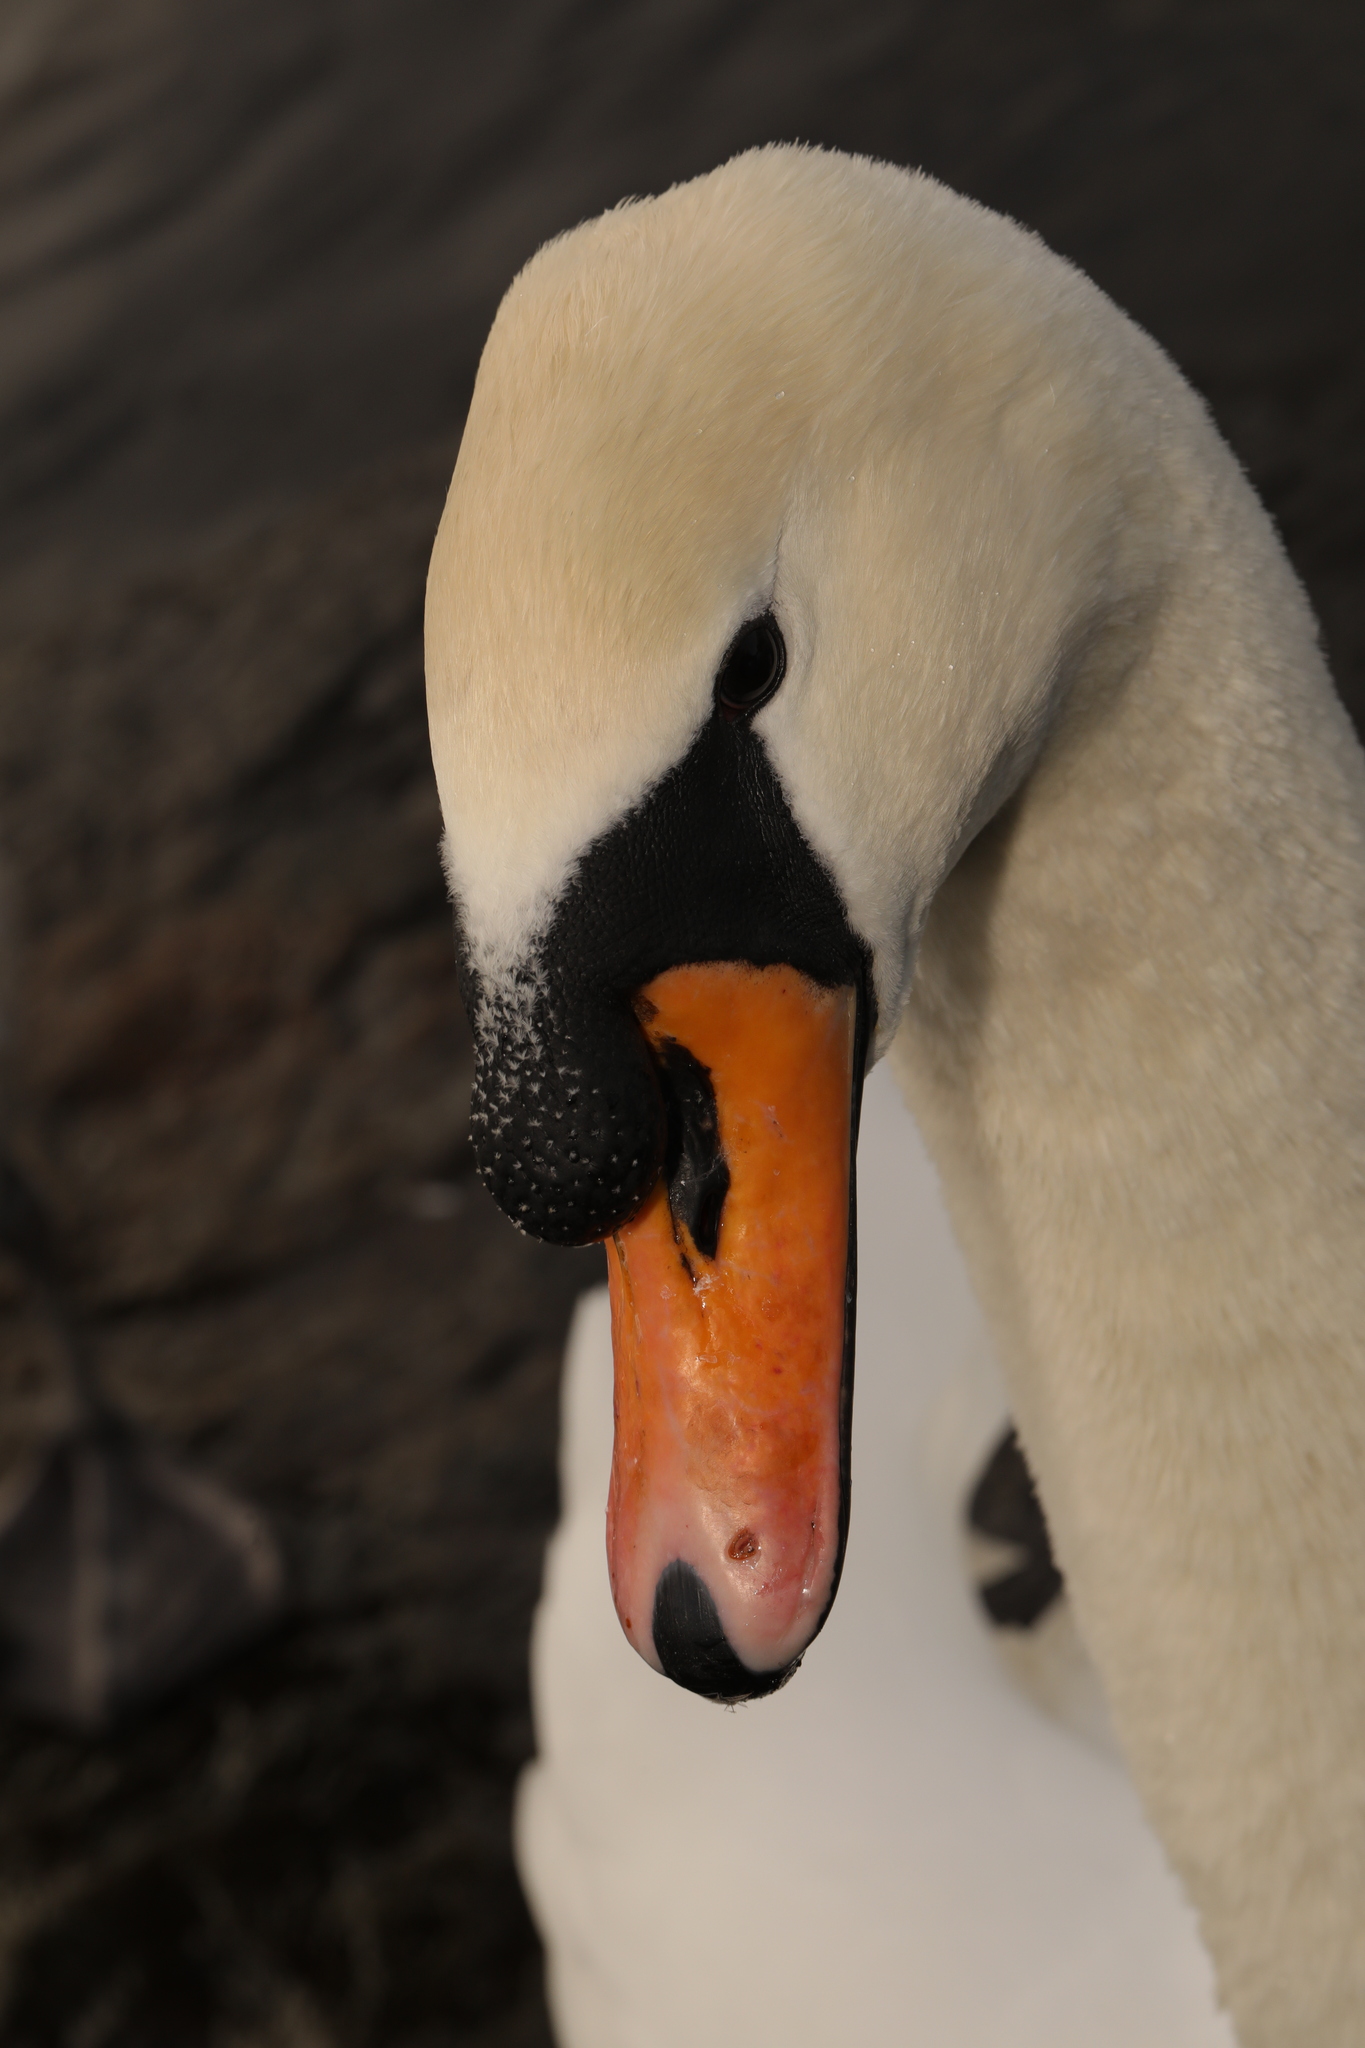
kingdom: Animalia
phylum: Chordata
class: Aves
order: Anseriformes
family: Anatidae
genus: Cygnus
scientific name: Cygnus olor
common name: Mute swan
